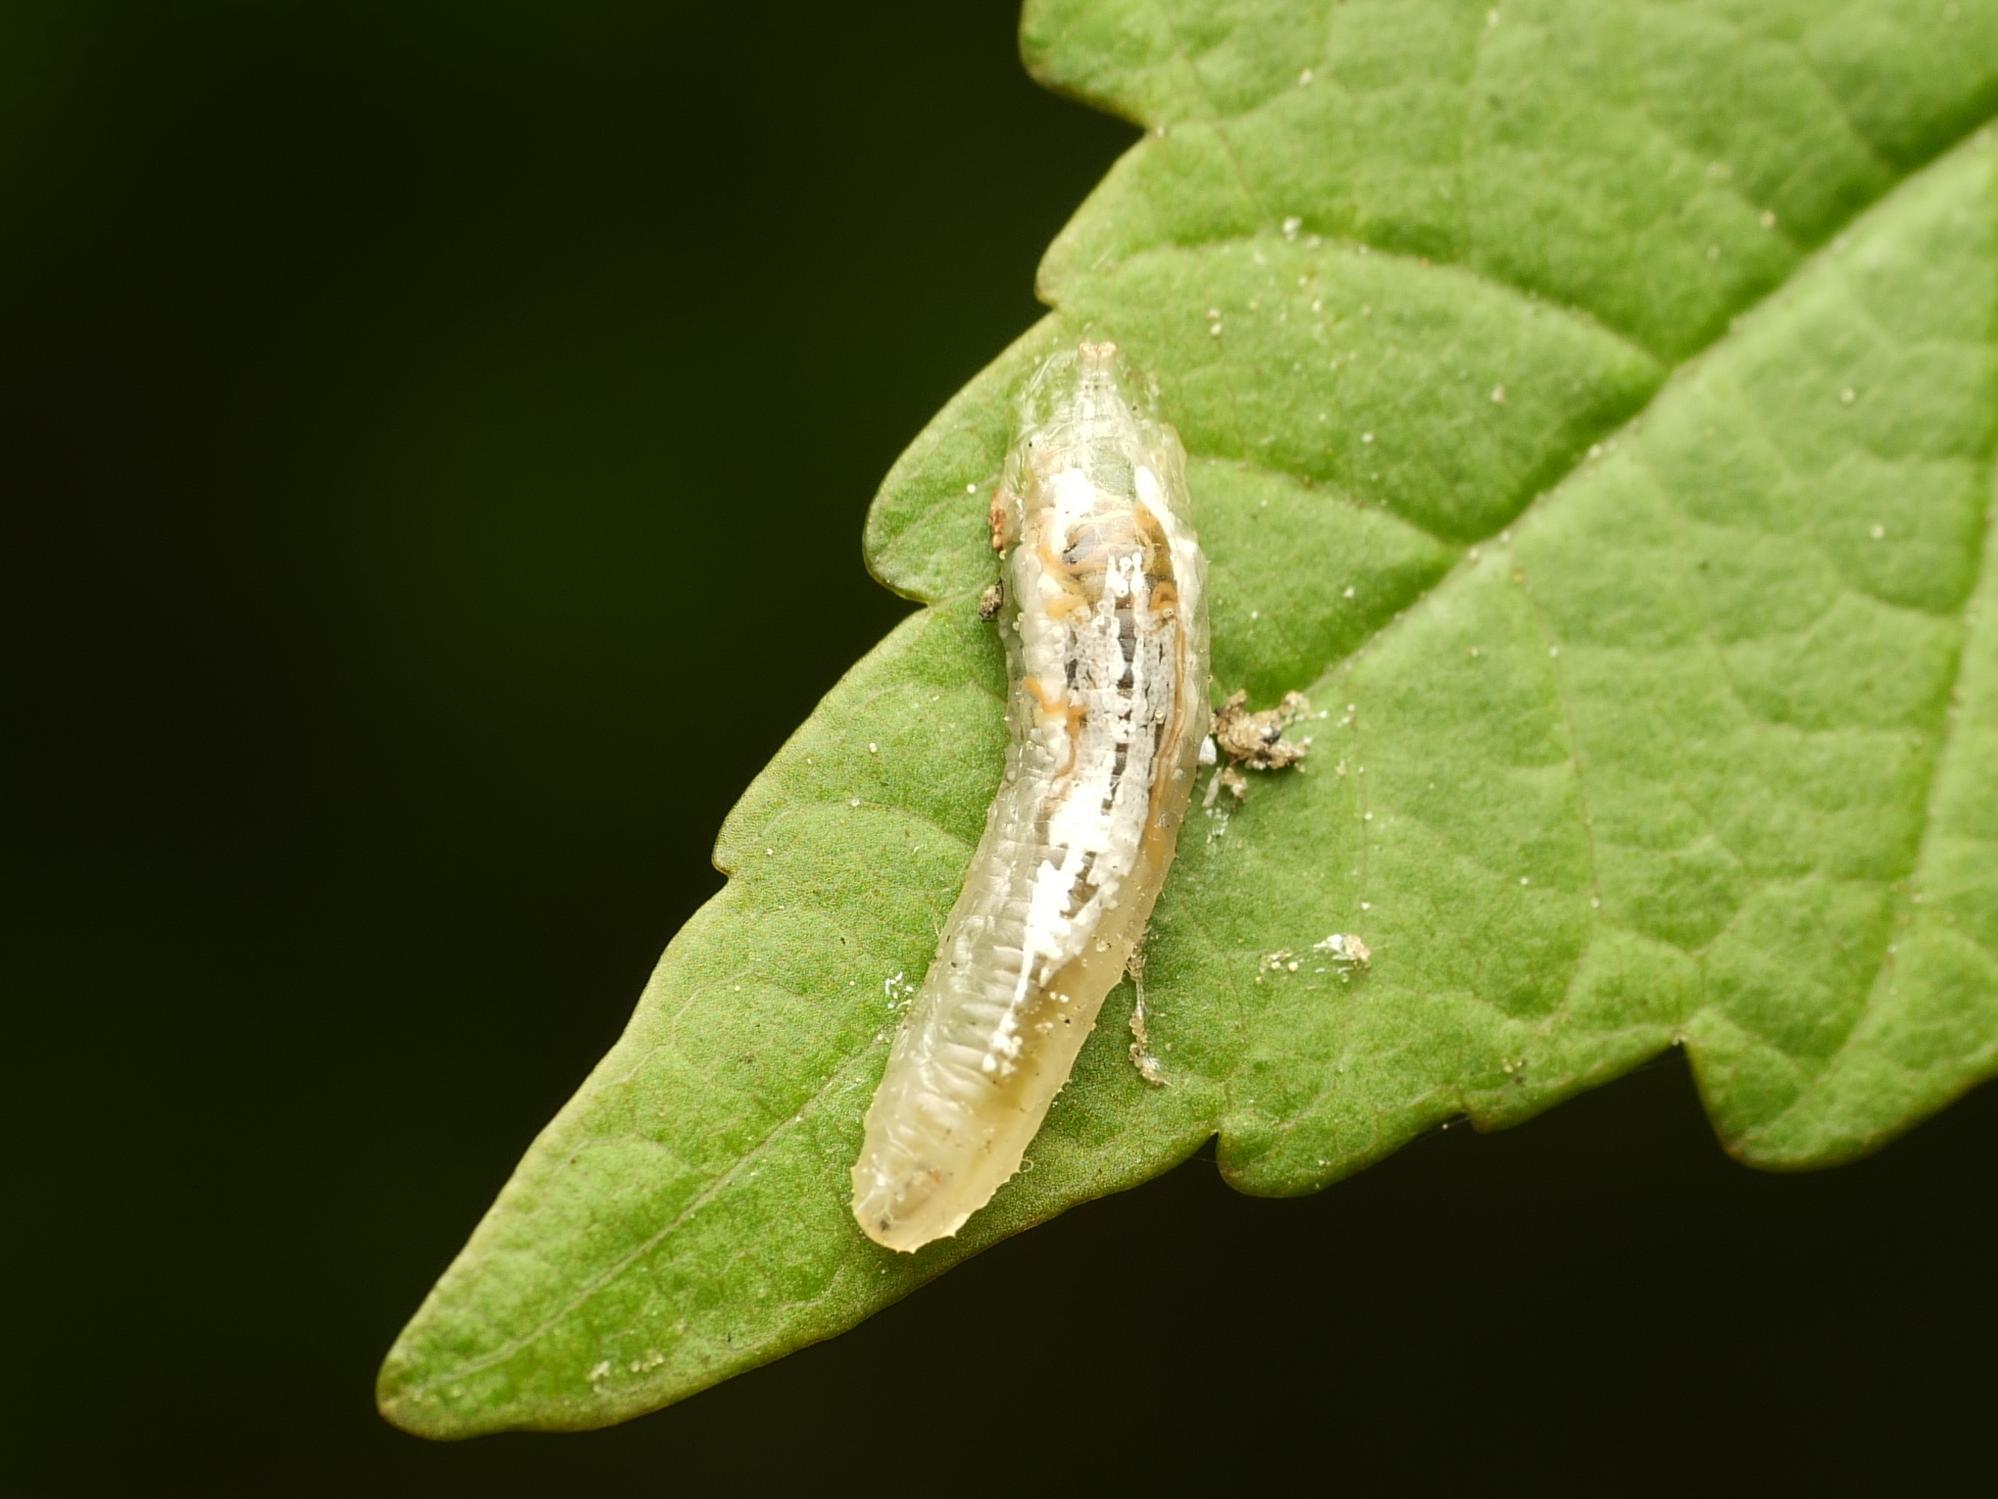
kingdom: Animalia
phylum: Arthropoda
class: Insecta
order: Diptera
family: Syrphidae
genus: Episyrphus
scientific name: Episyrphus balteatus
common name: Marmalade hoverfly
